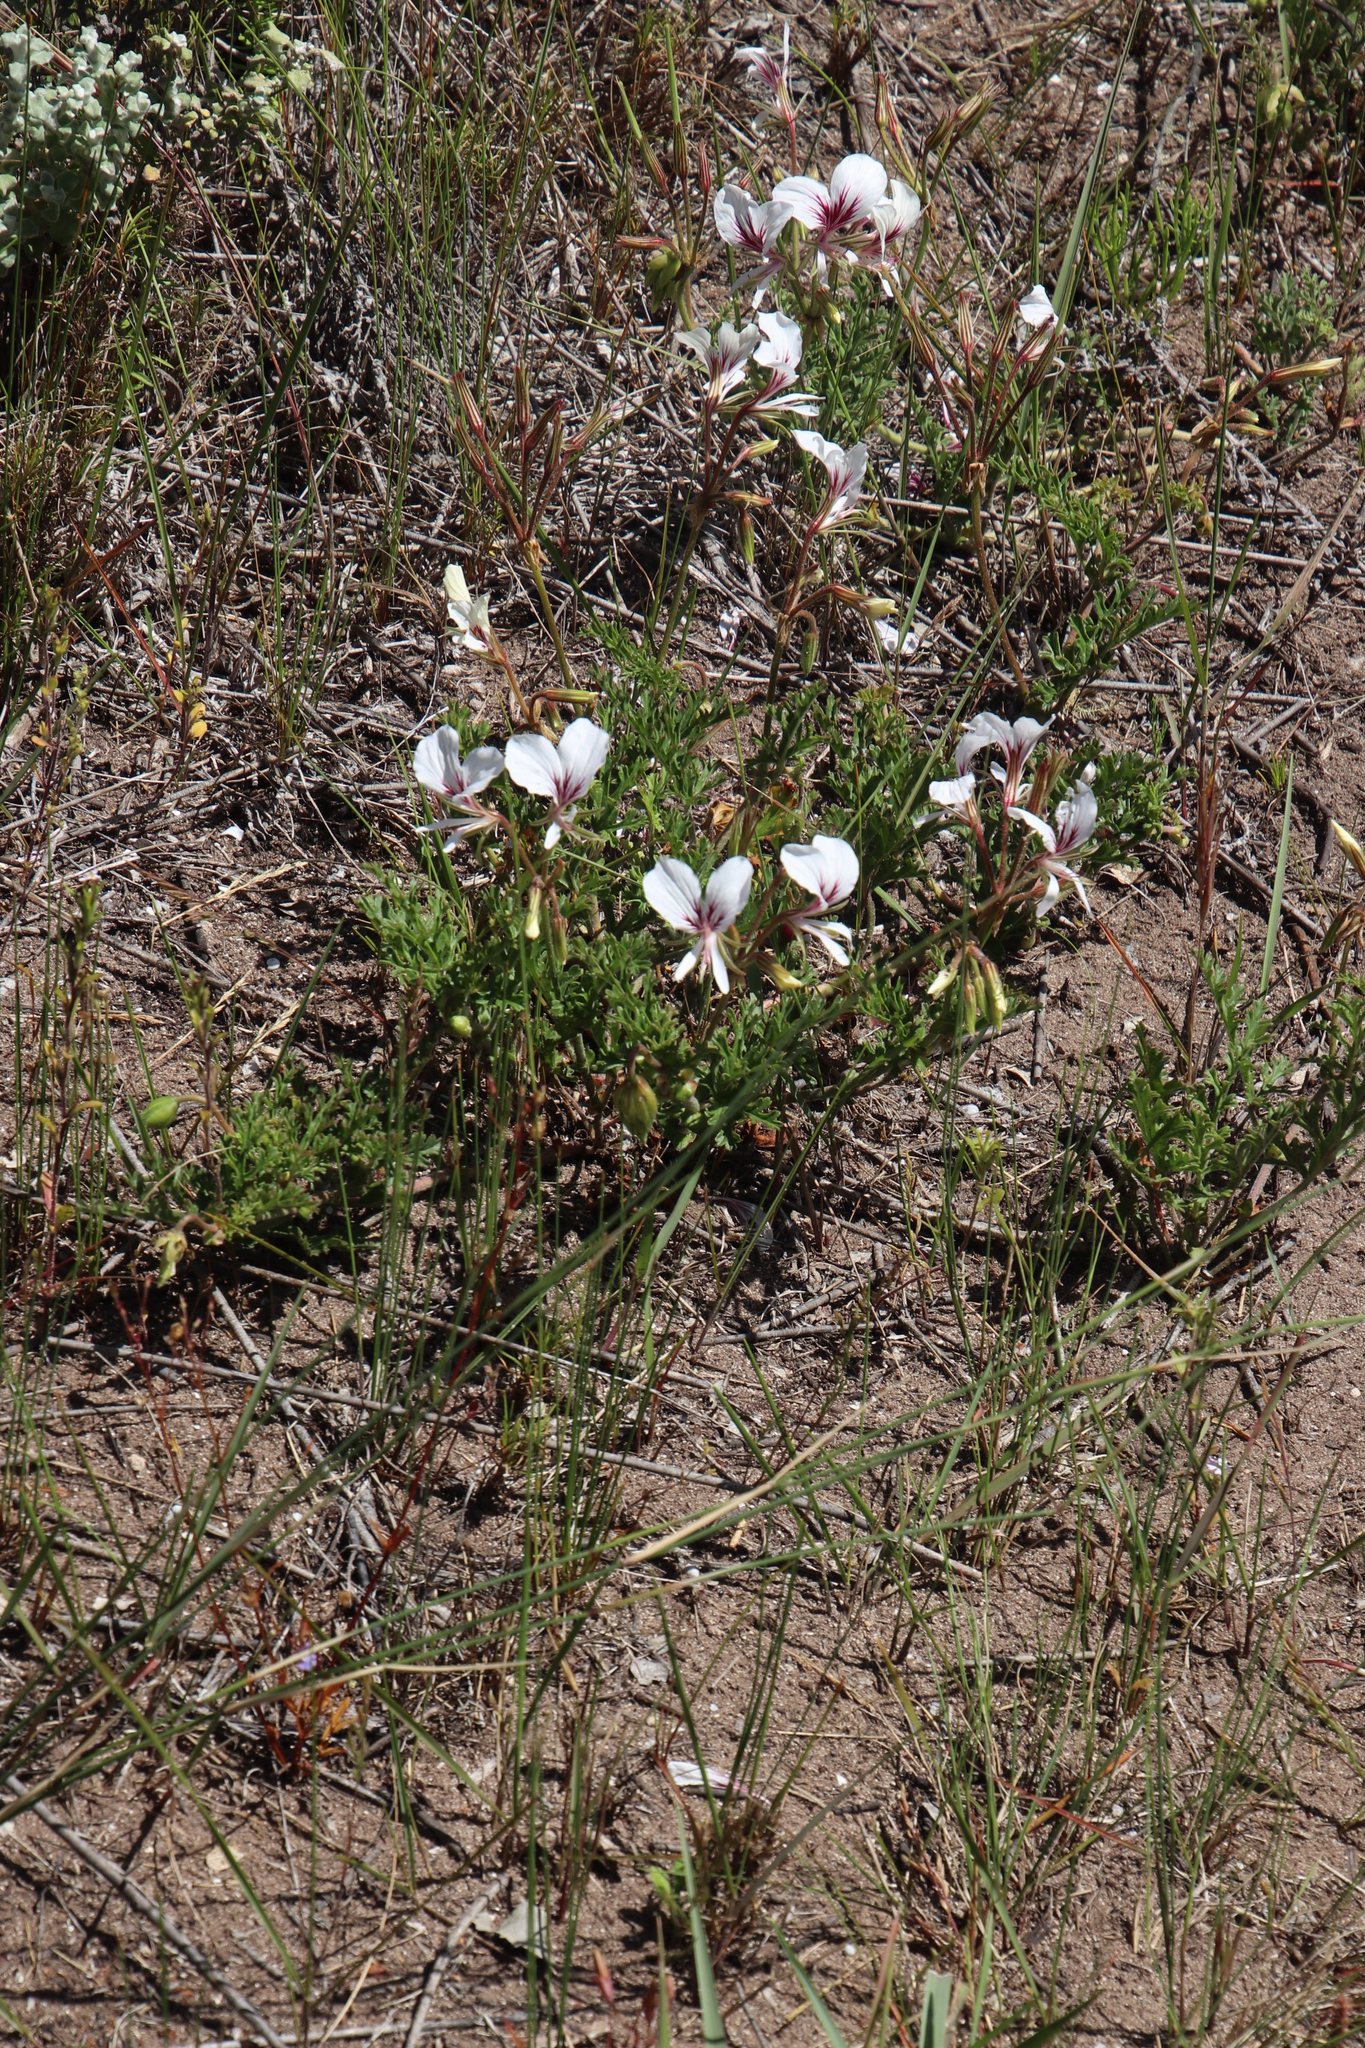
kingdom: Plantae
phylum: Tracheophyta
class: Magnoliopsida
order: Geraniales
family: Geraniaceae
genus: Pelargonium
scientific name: Pelargonium suburbanum
